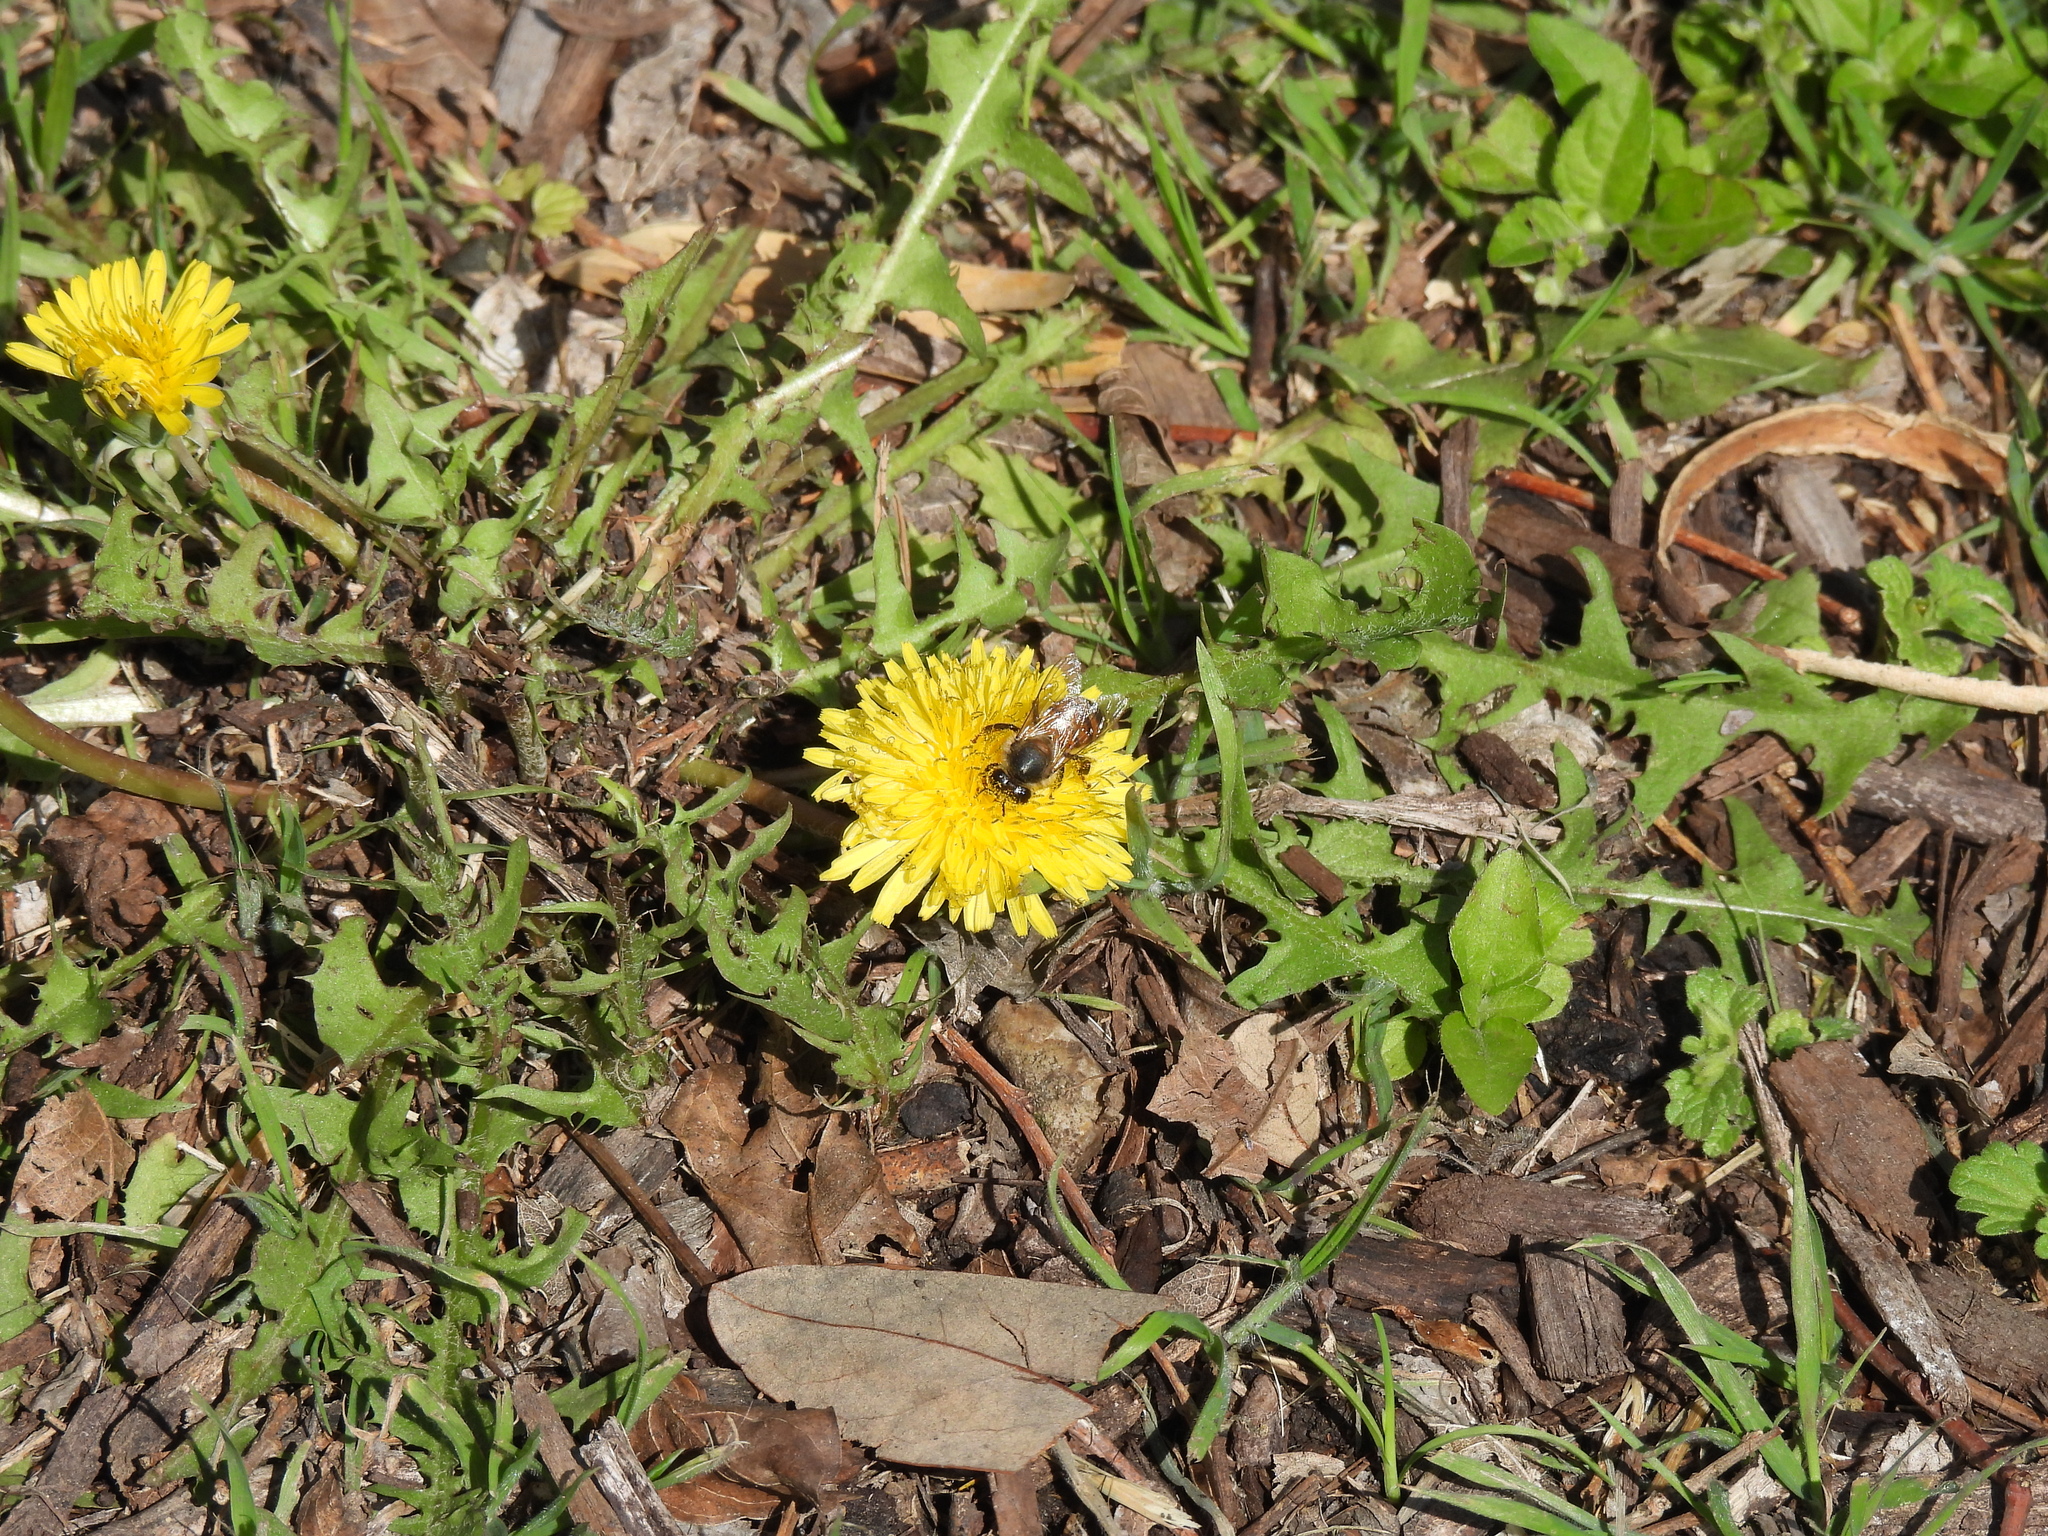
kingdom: Animalia
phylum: Arthropoda
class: Insecta
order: Hymenoptera
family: Apidae
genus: Apis
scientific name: Apis mellifera
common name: Honey bee
